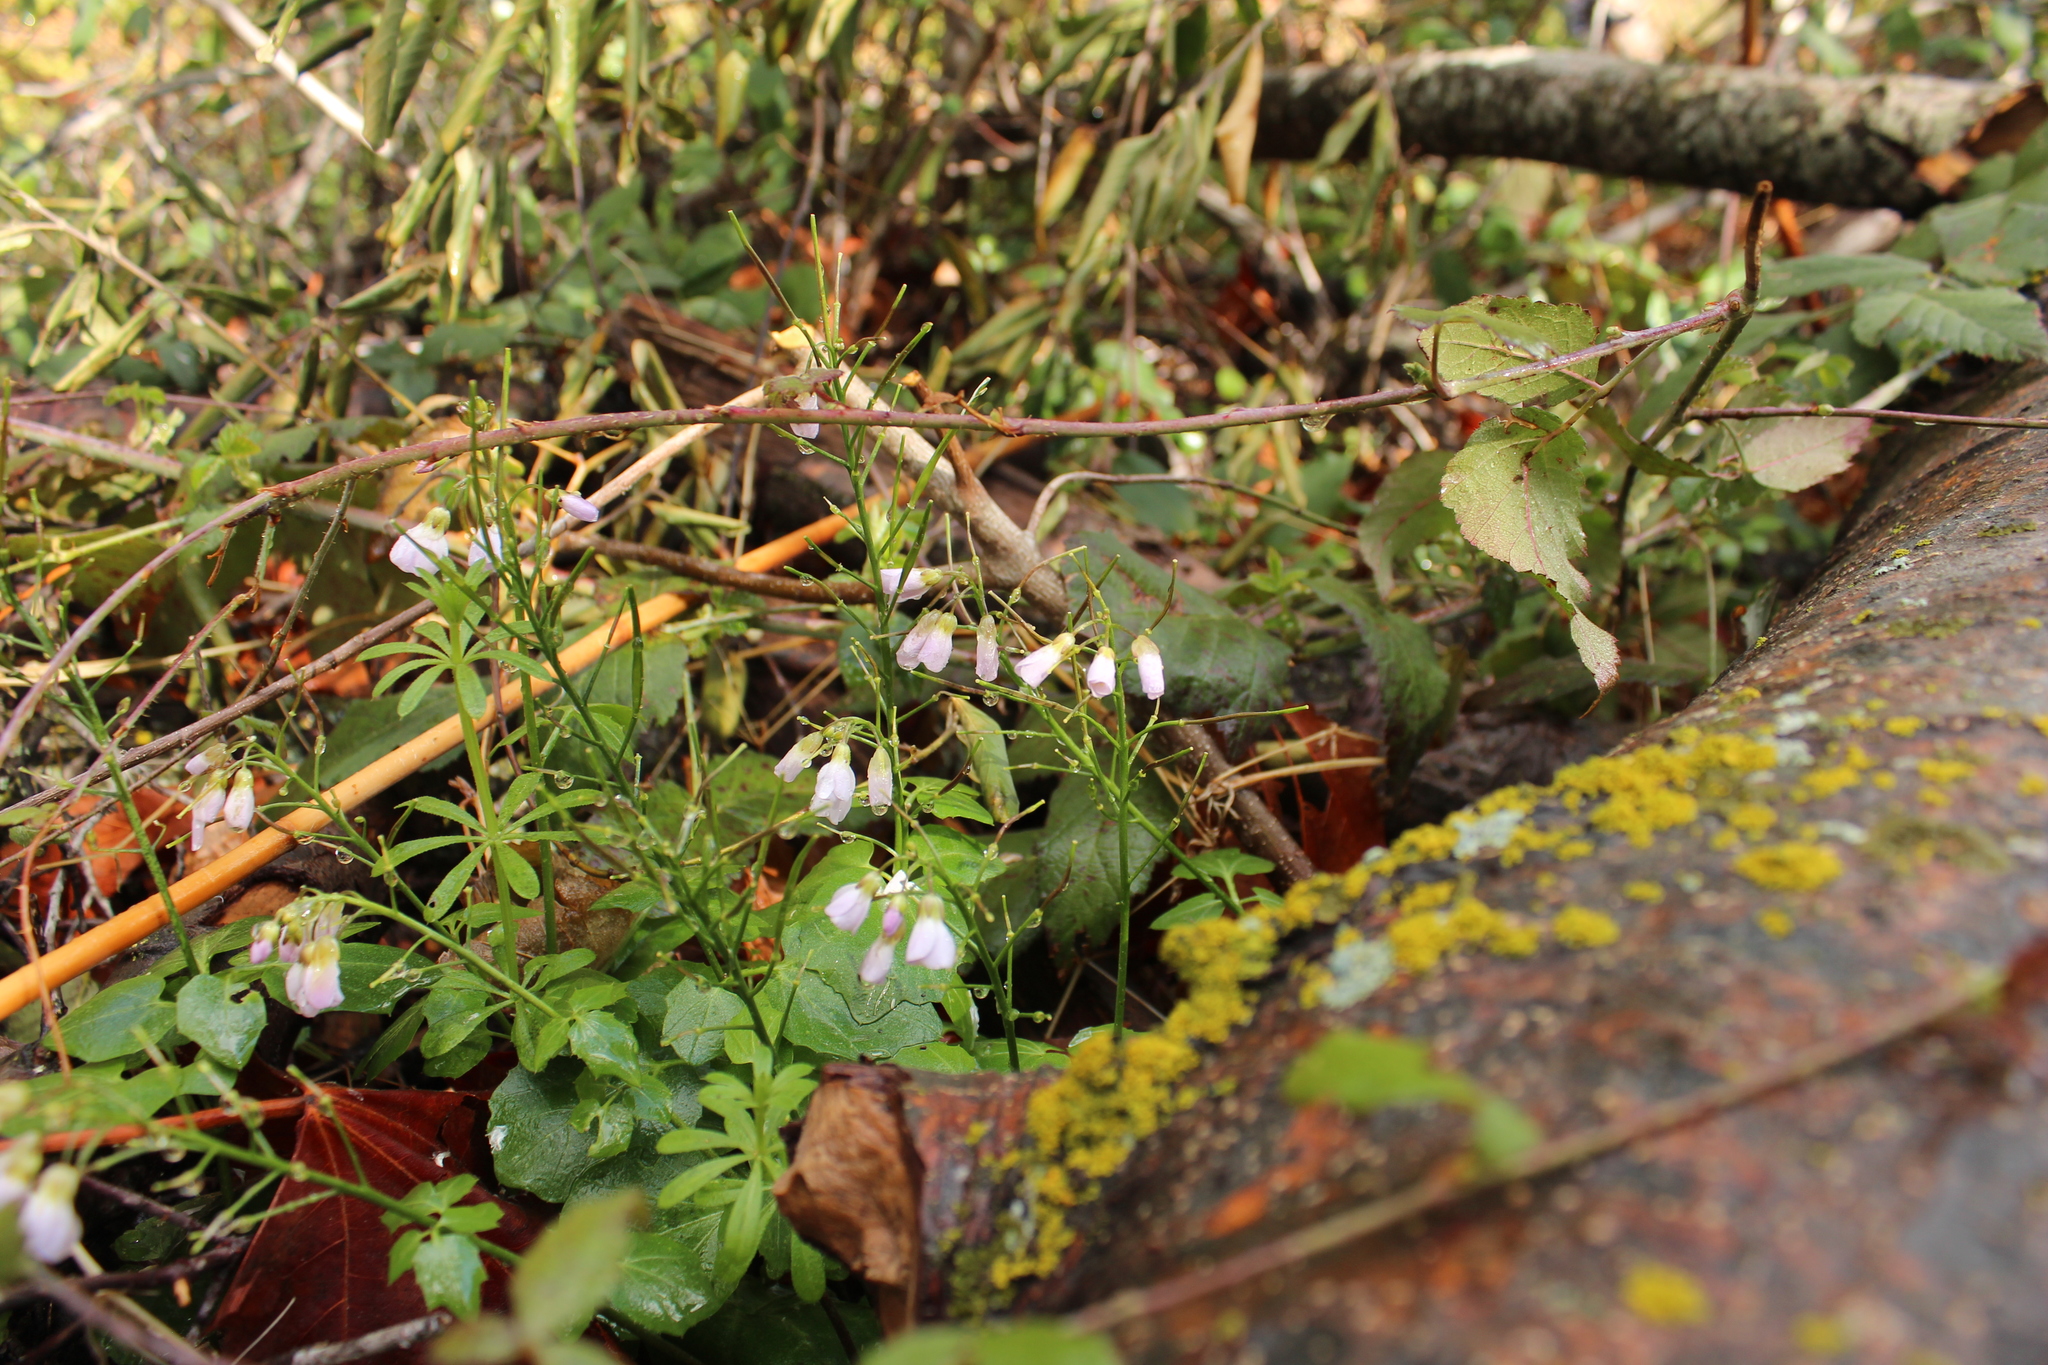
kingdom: Plantae
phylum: Tracheophyta
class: Magnoliopsida
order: Brassicales
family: Brassicaceae
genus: Cardamine
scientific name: Cardamine californica
